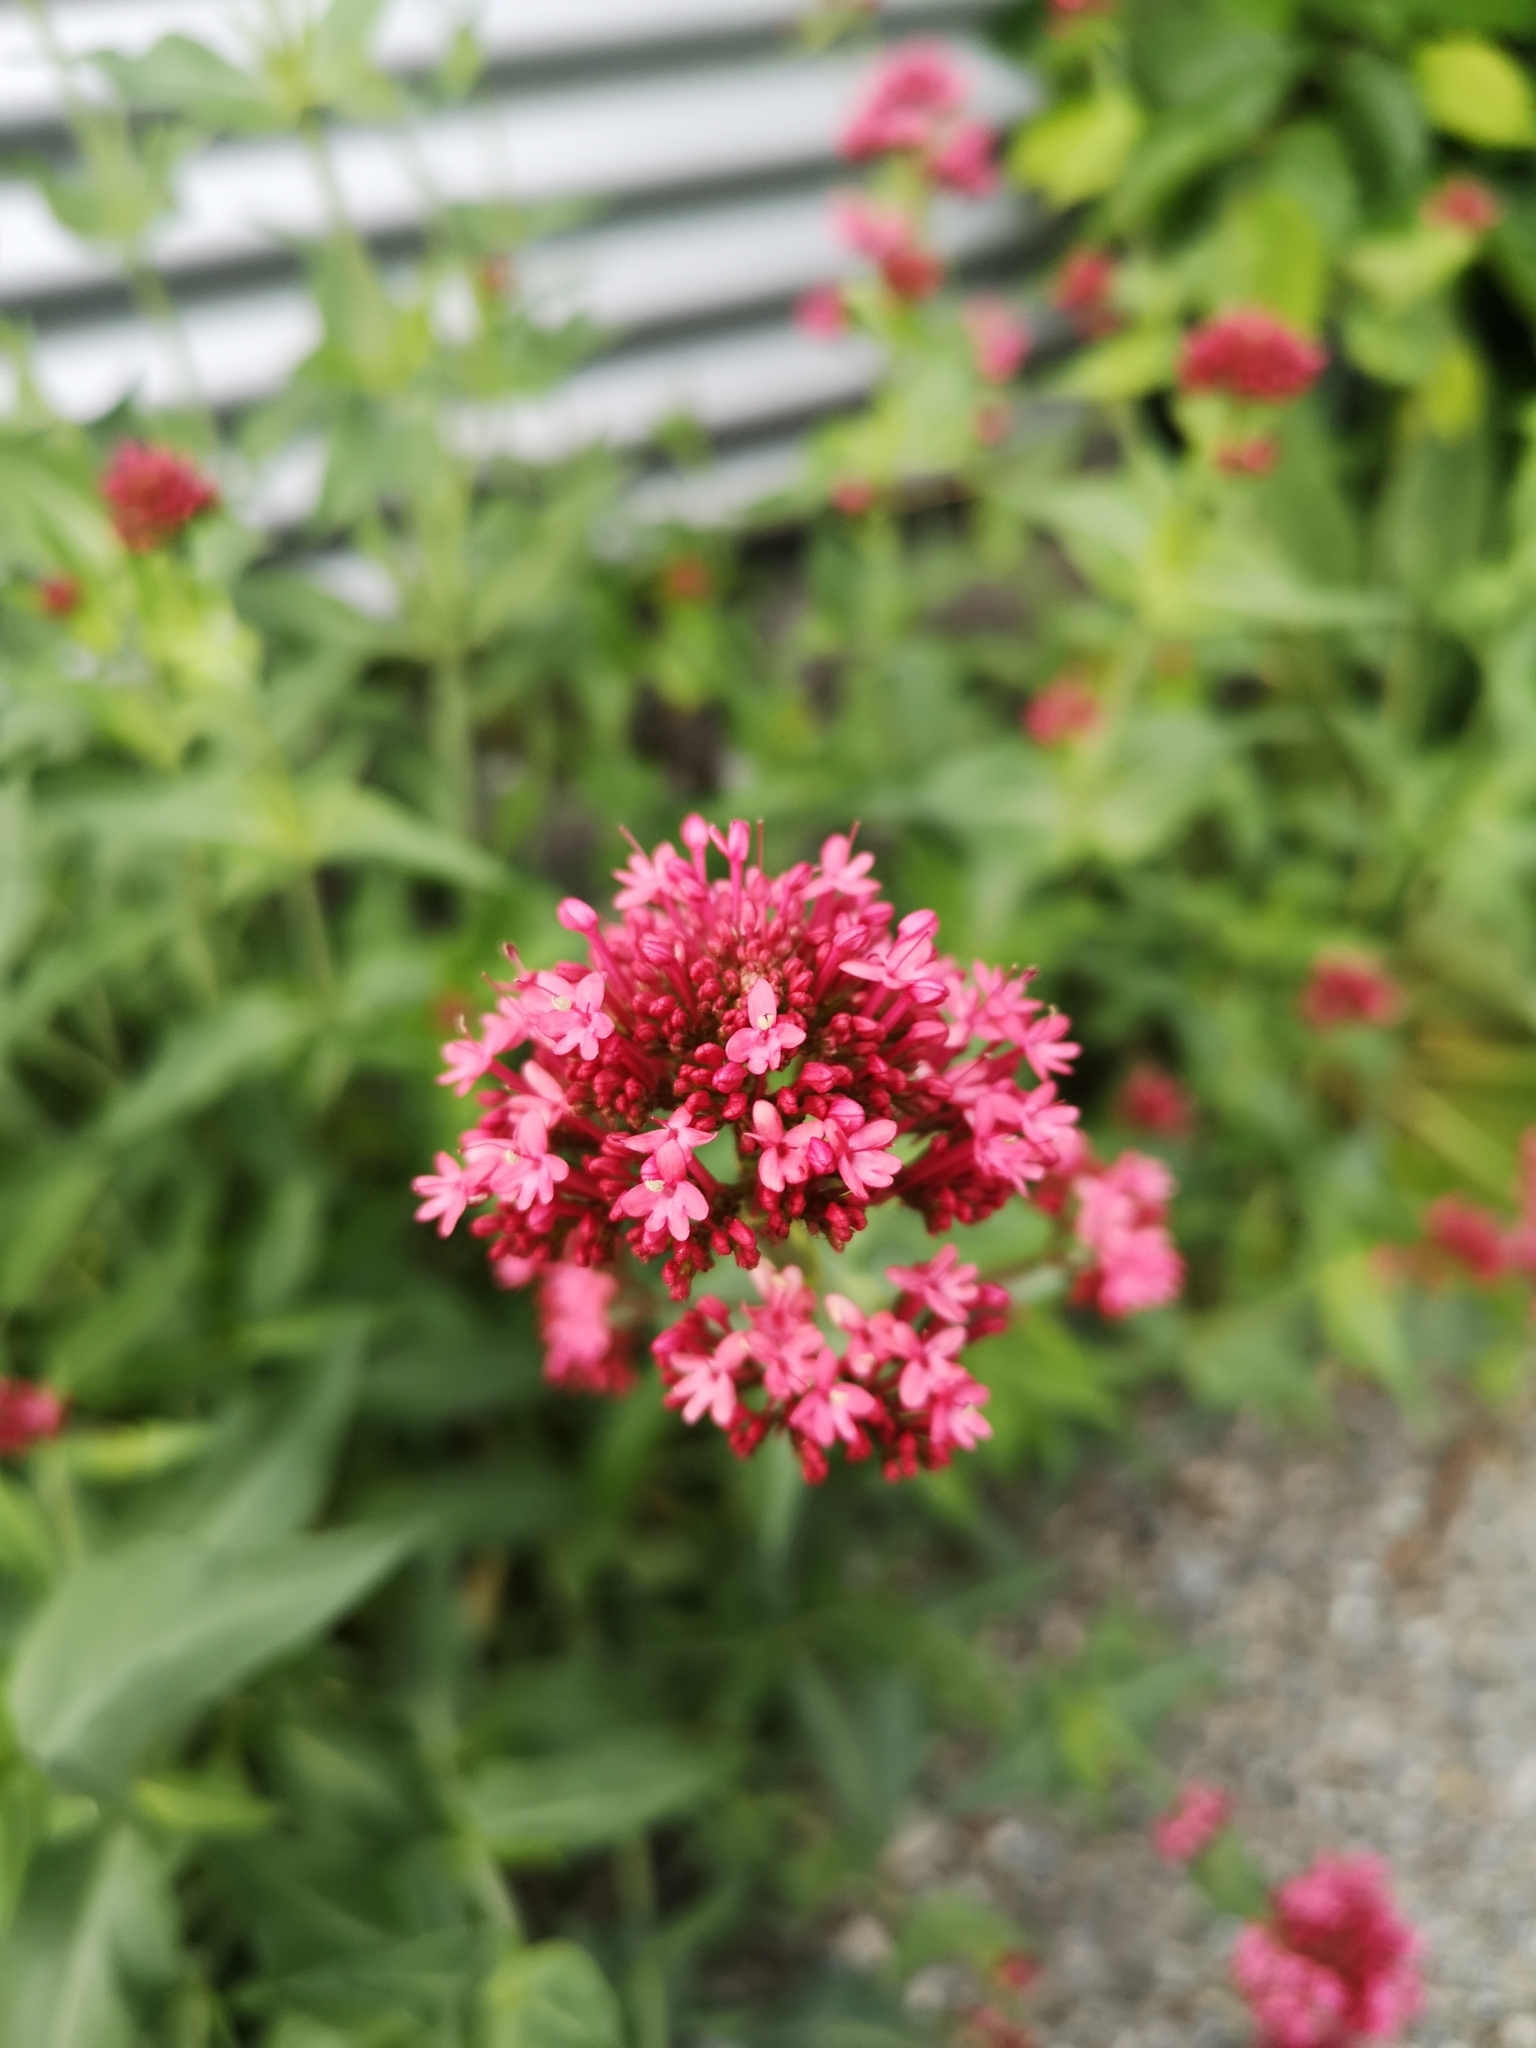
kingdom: Plantae
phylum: Tracheophyta
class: Magnoliopsida
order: Dipsacales
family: Caprifoliaceae
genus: Centranthus
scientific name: Centranthus ruber
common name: Red valerian
